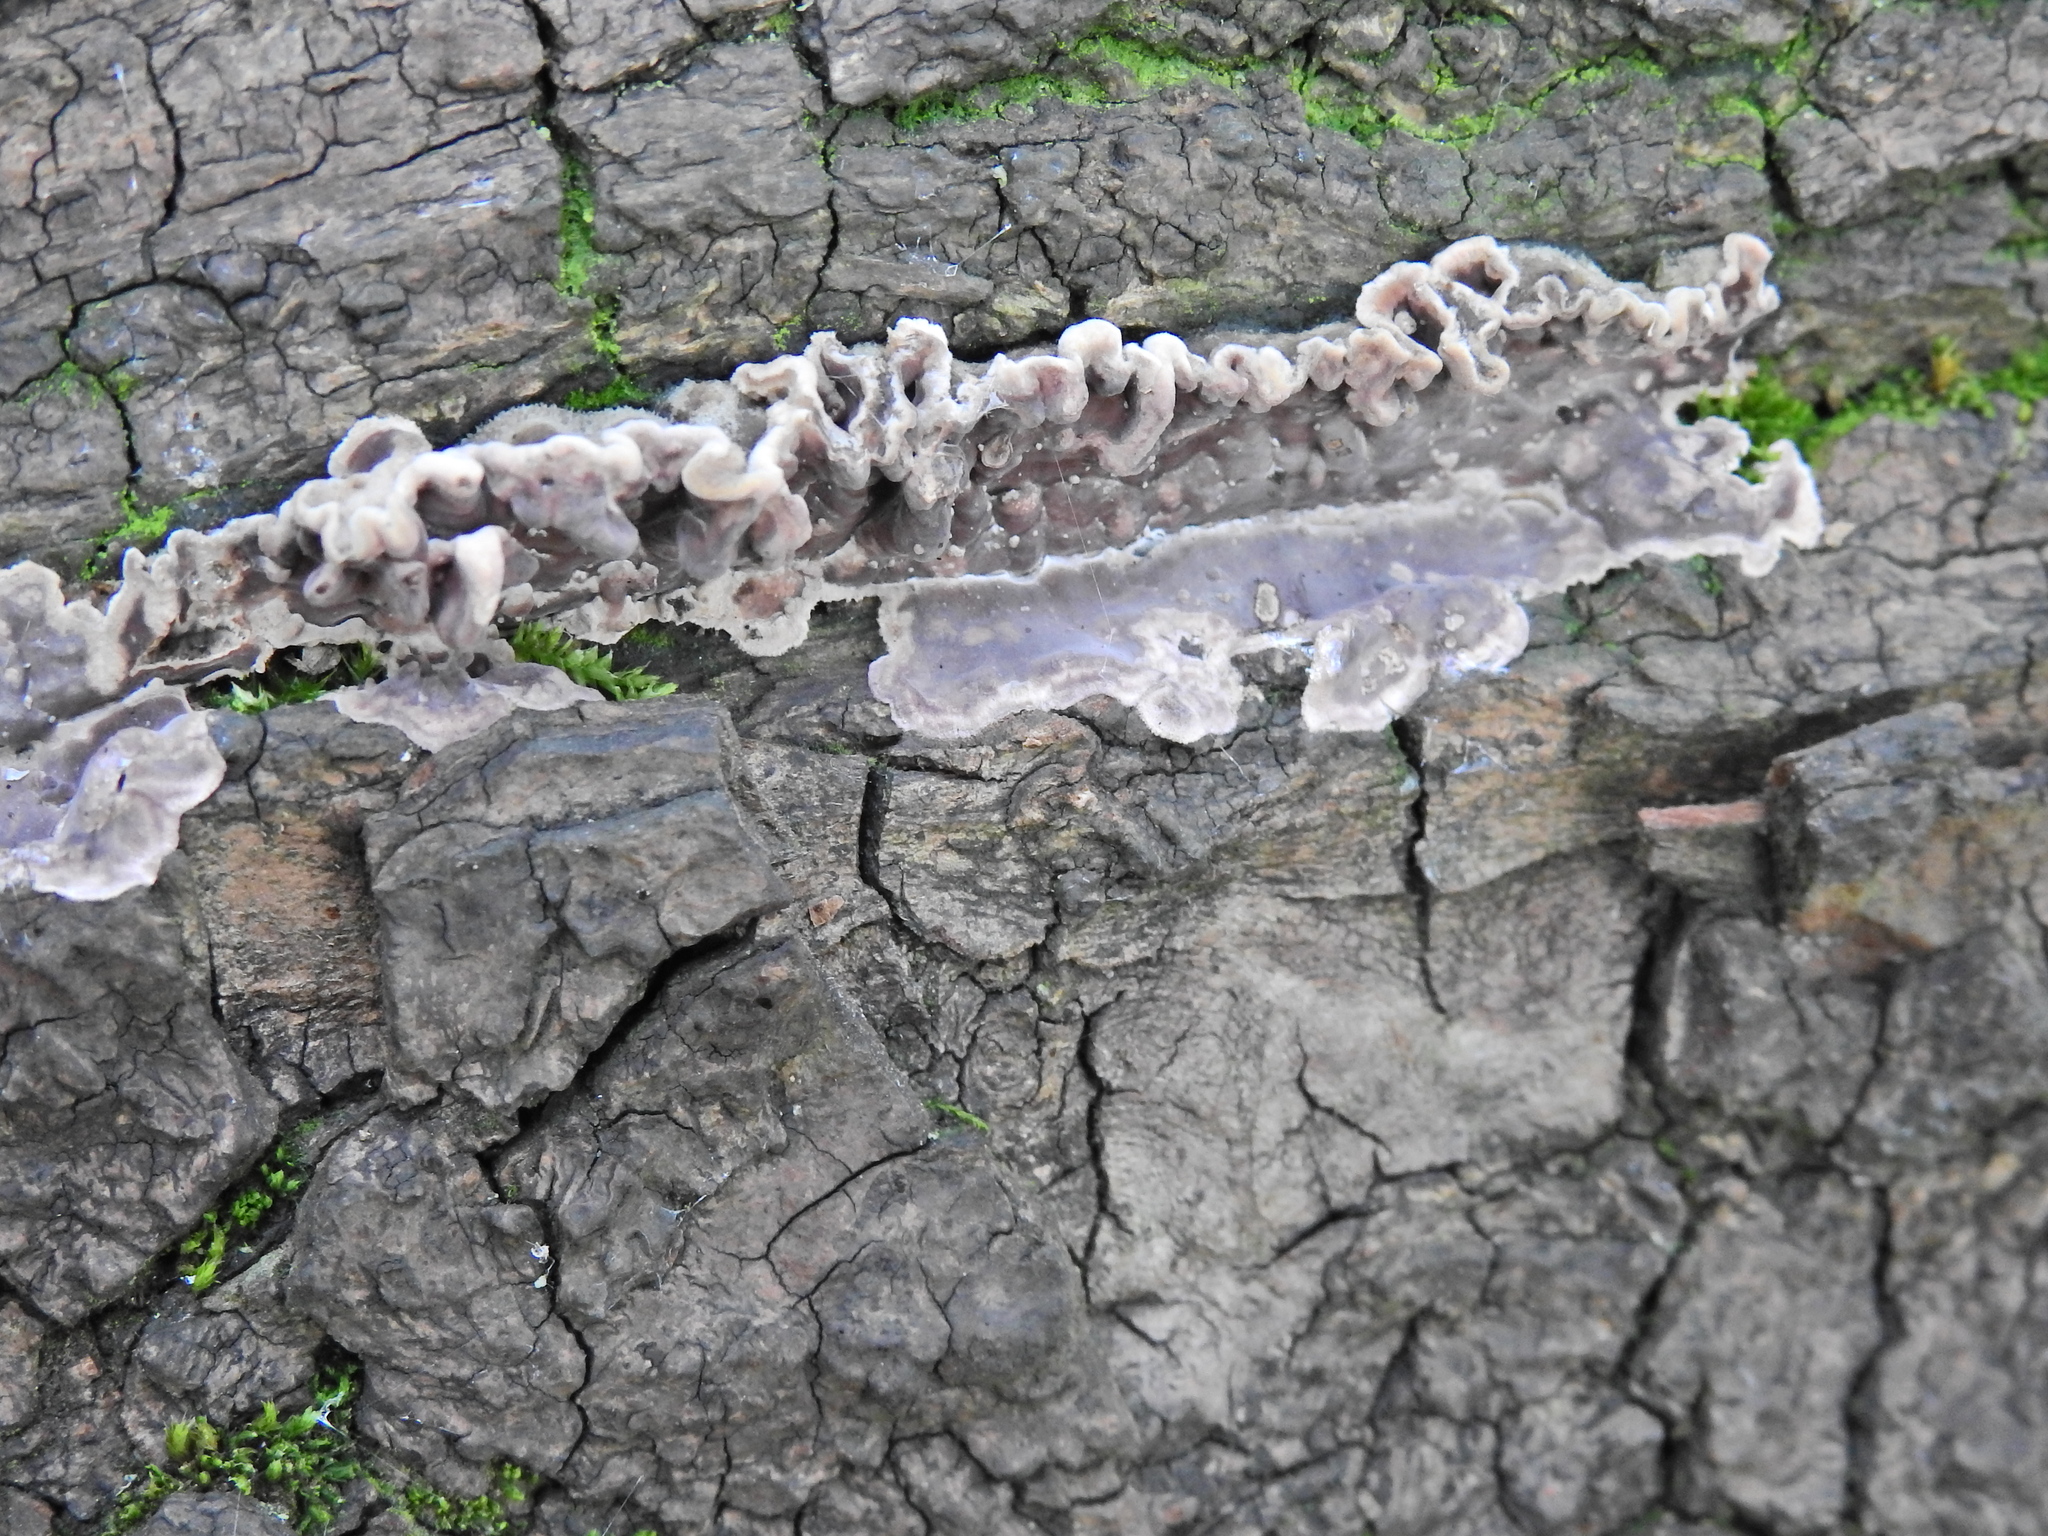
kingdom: Fungi
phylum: Basidiomycota
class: Agaricomycetes
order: Agaricales
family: Cyphellaceae
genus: Chondrostereum
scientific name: Chondrostereum purpureum
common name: Silver leaf disease
